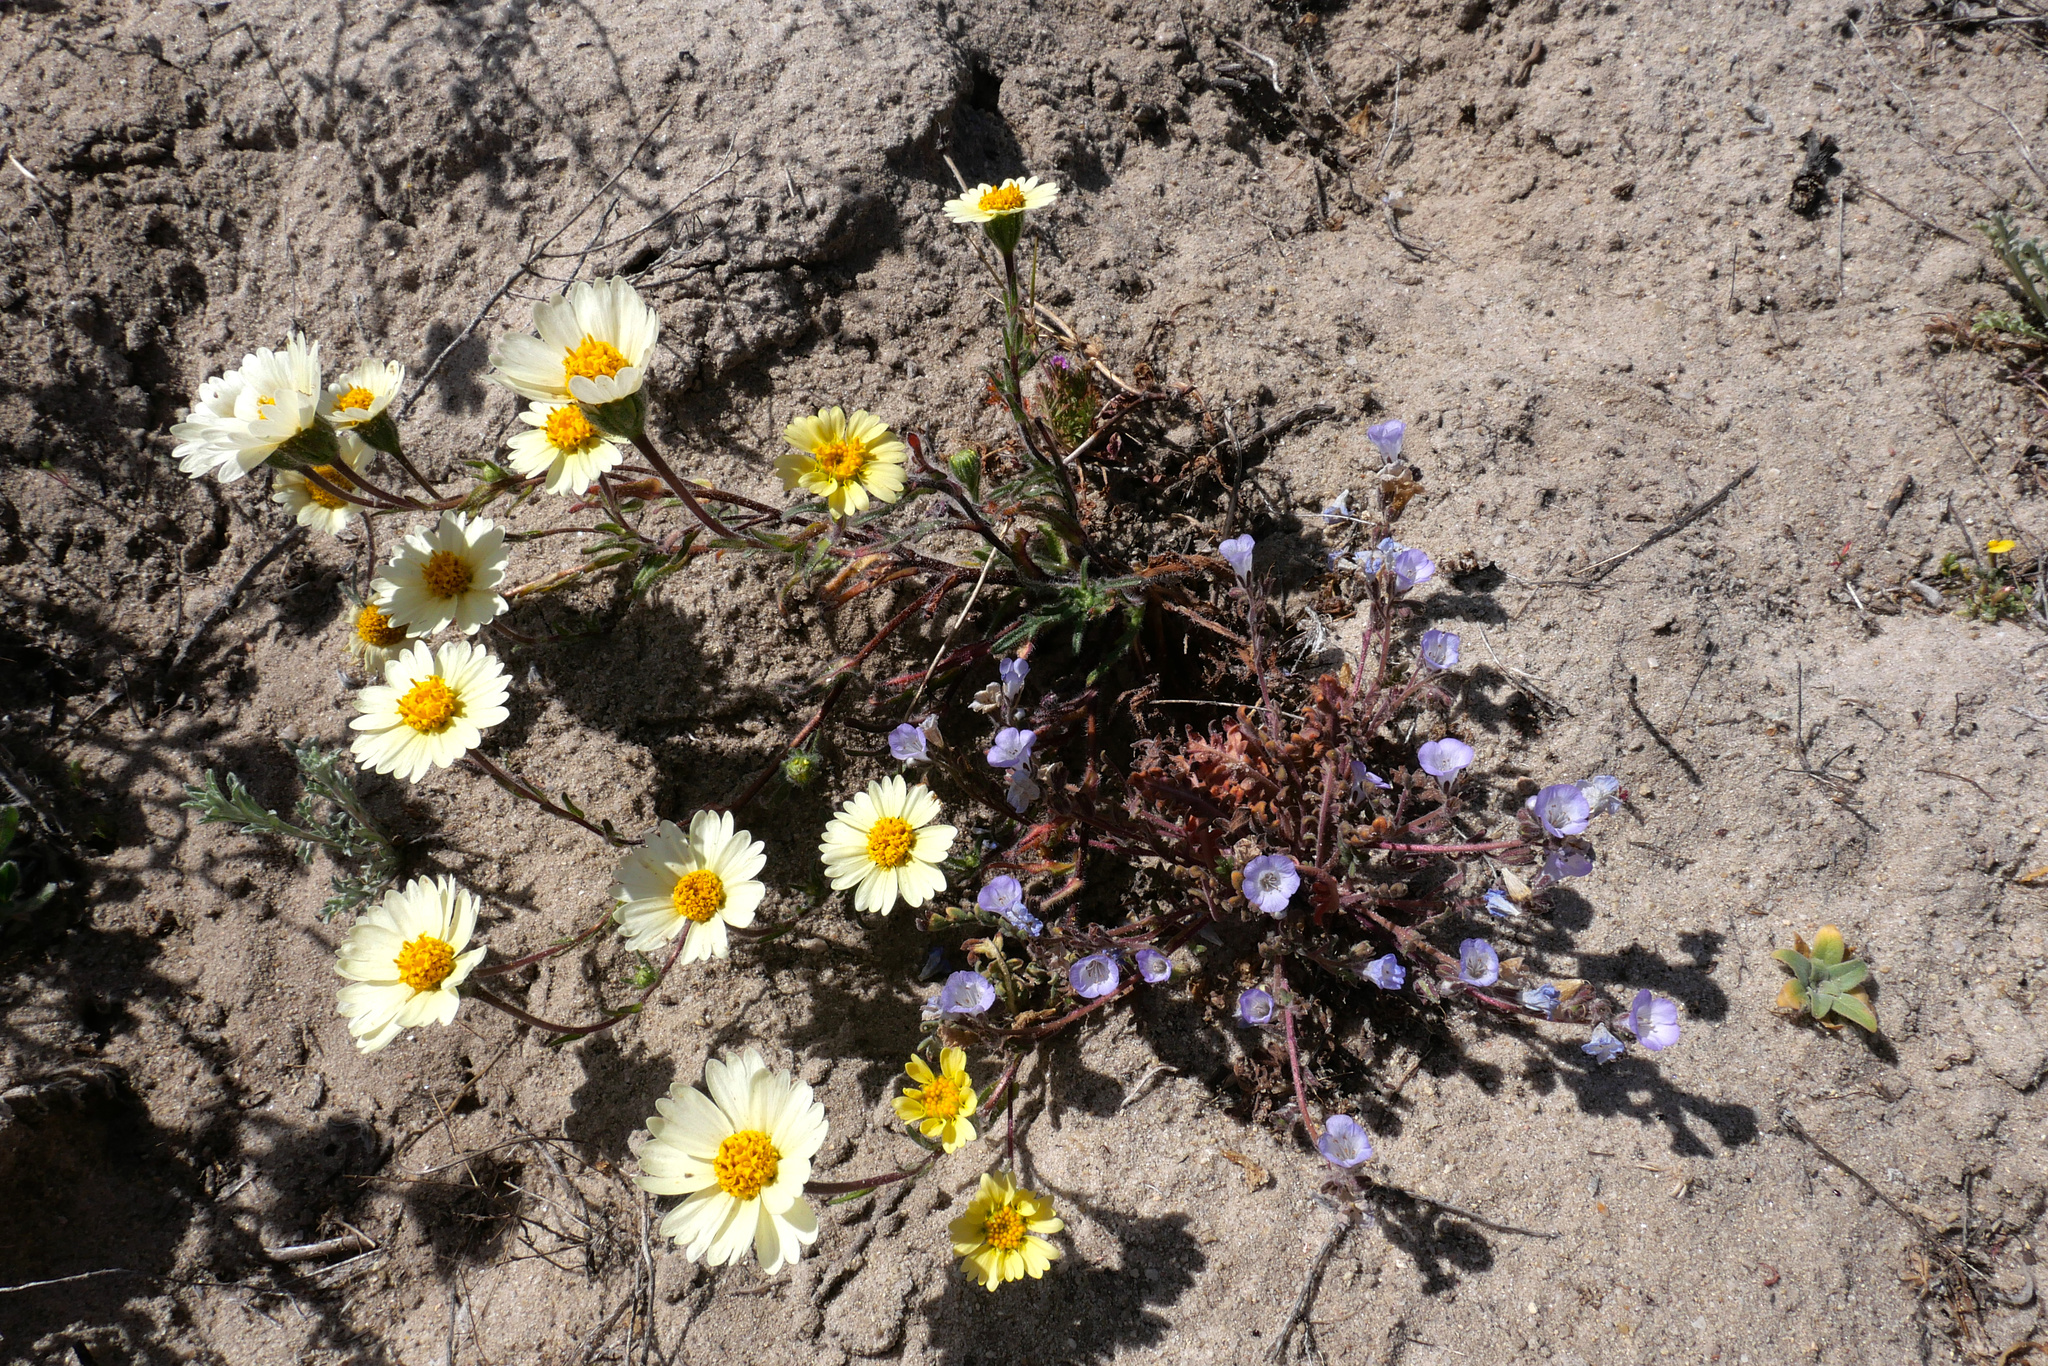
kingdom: Plantae
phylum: Tracheophyta
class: Magnoliopsida
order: Asterales
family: Asteraceae
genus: Layia
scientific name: Layia glandulosa
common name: White layia
